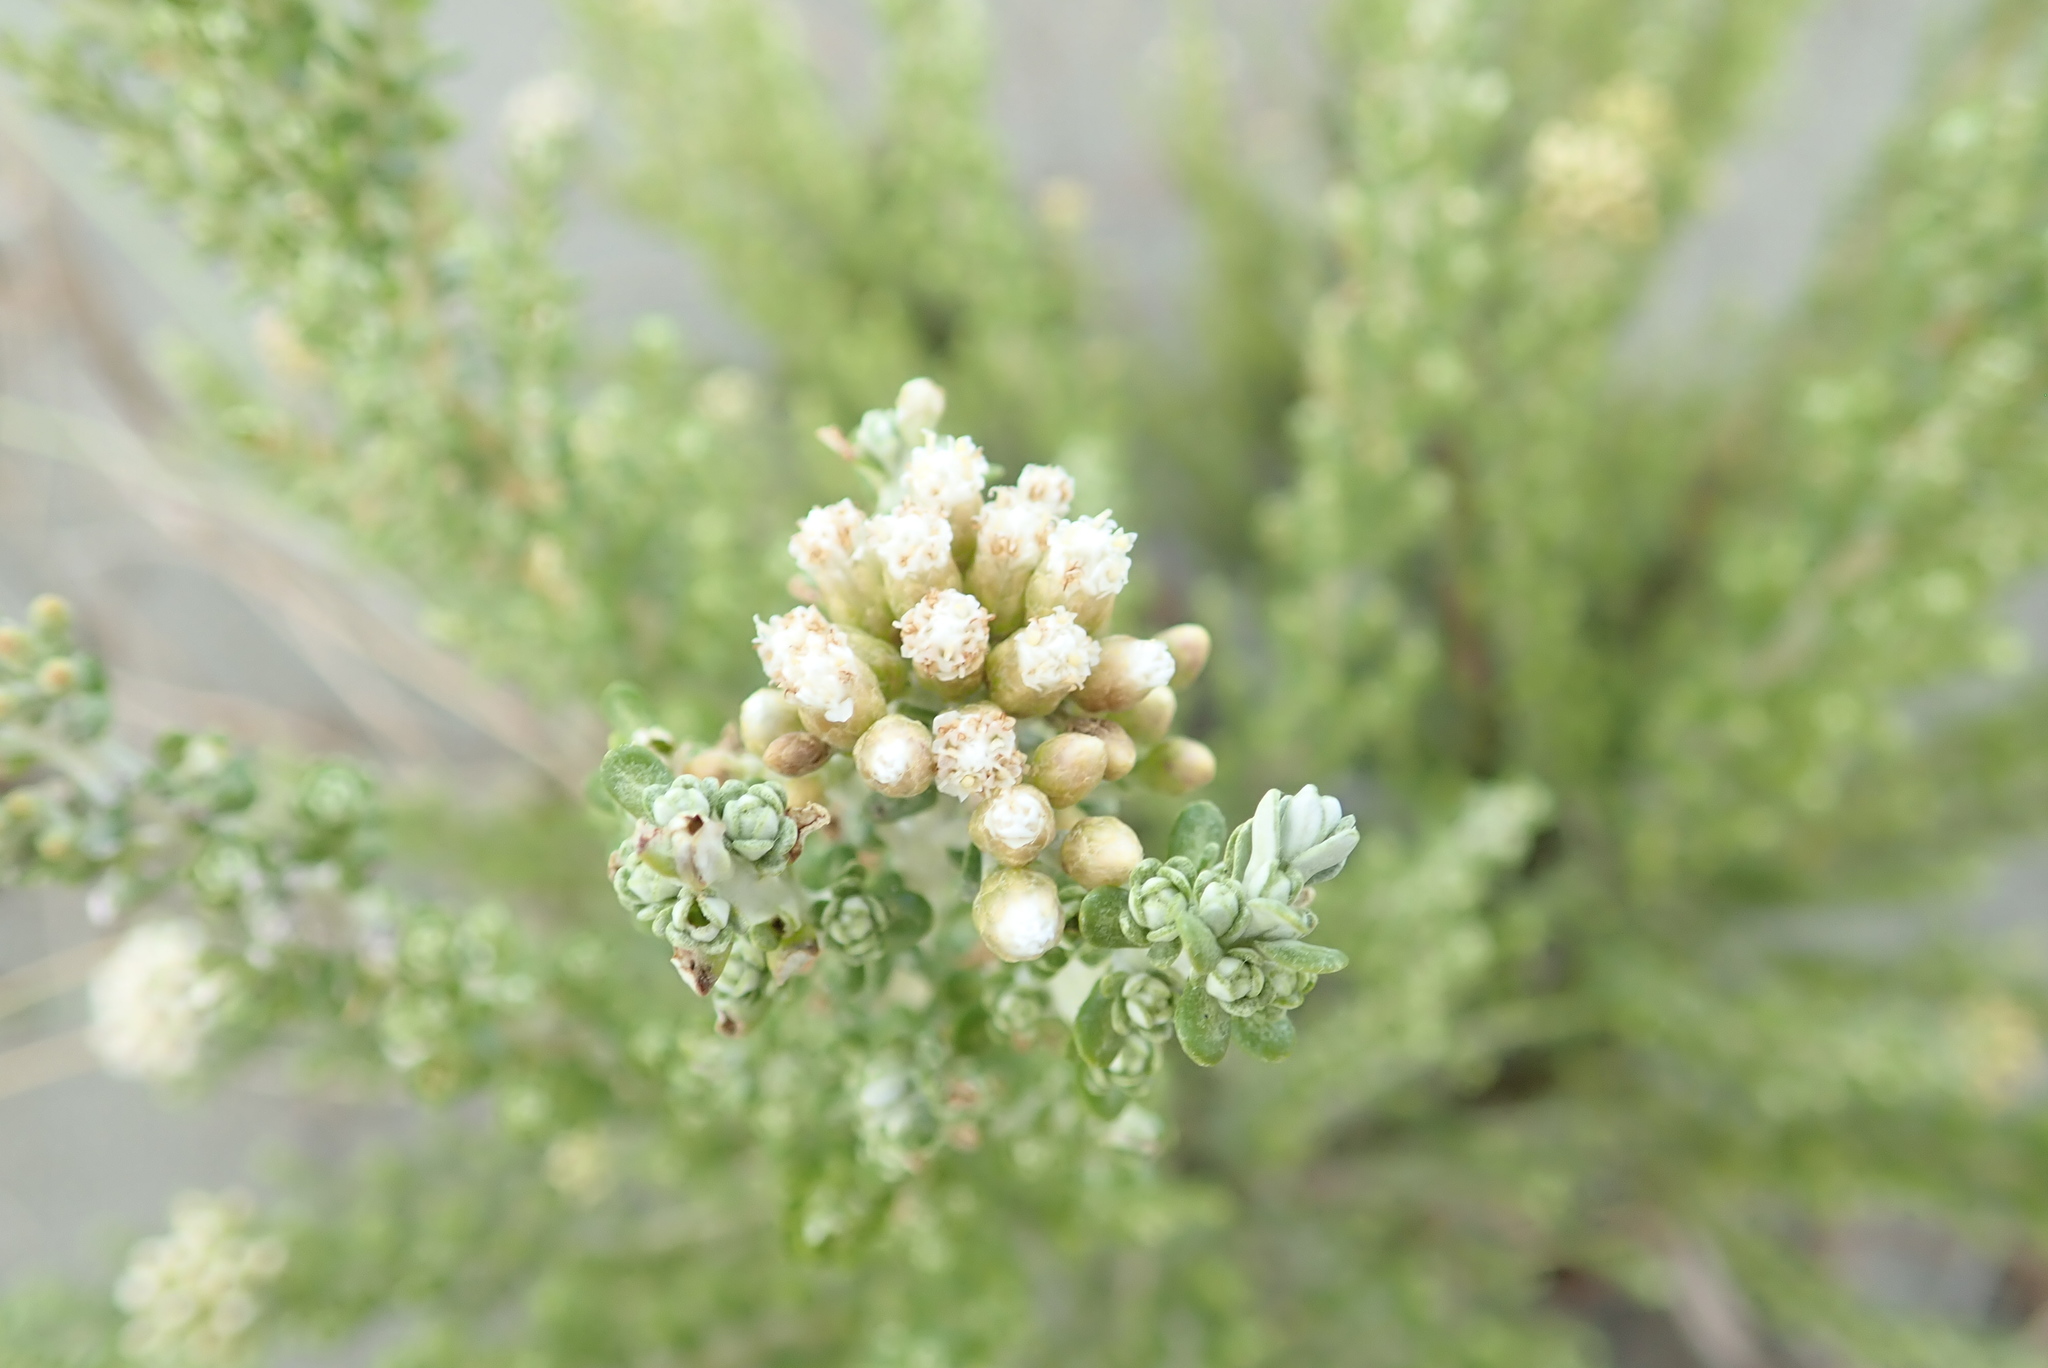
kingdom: Plantae
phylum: Tracheophyta
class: Magnoliopsida
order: Asterales
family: Asteraceae
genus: Ozothamnus
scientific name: Ozothamnus leptophyllus
